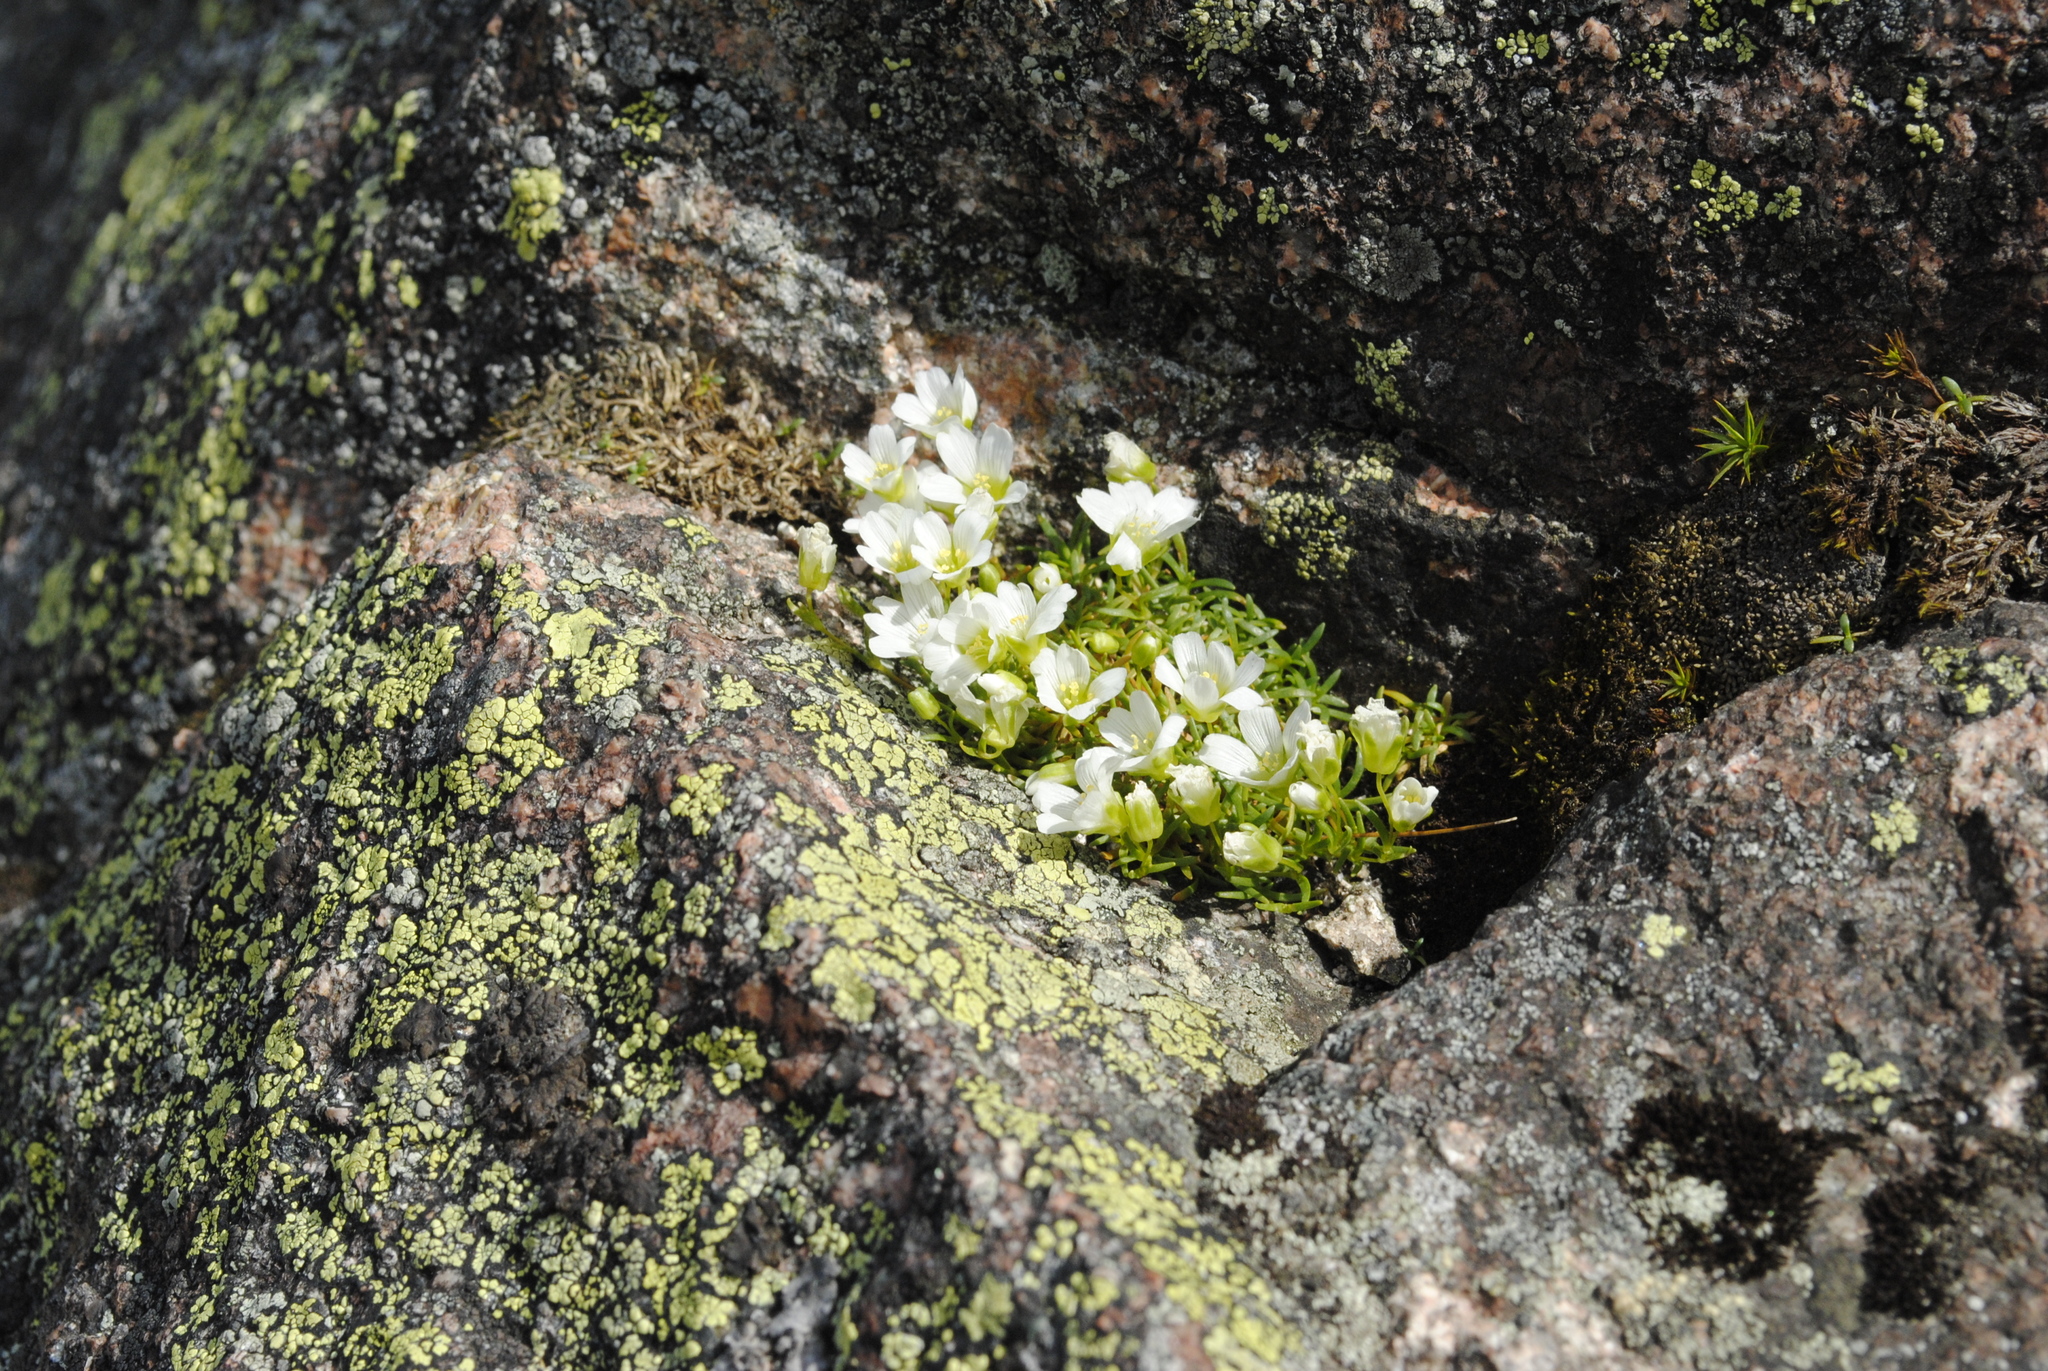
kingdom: Plantae
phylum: Tracheophyta
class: Magnoliopsida
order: Caryophyllales
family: Caryophyllaceae
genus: Geocarpon
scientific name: Geocarpon groenlandicum
